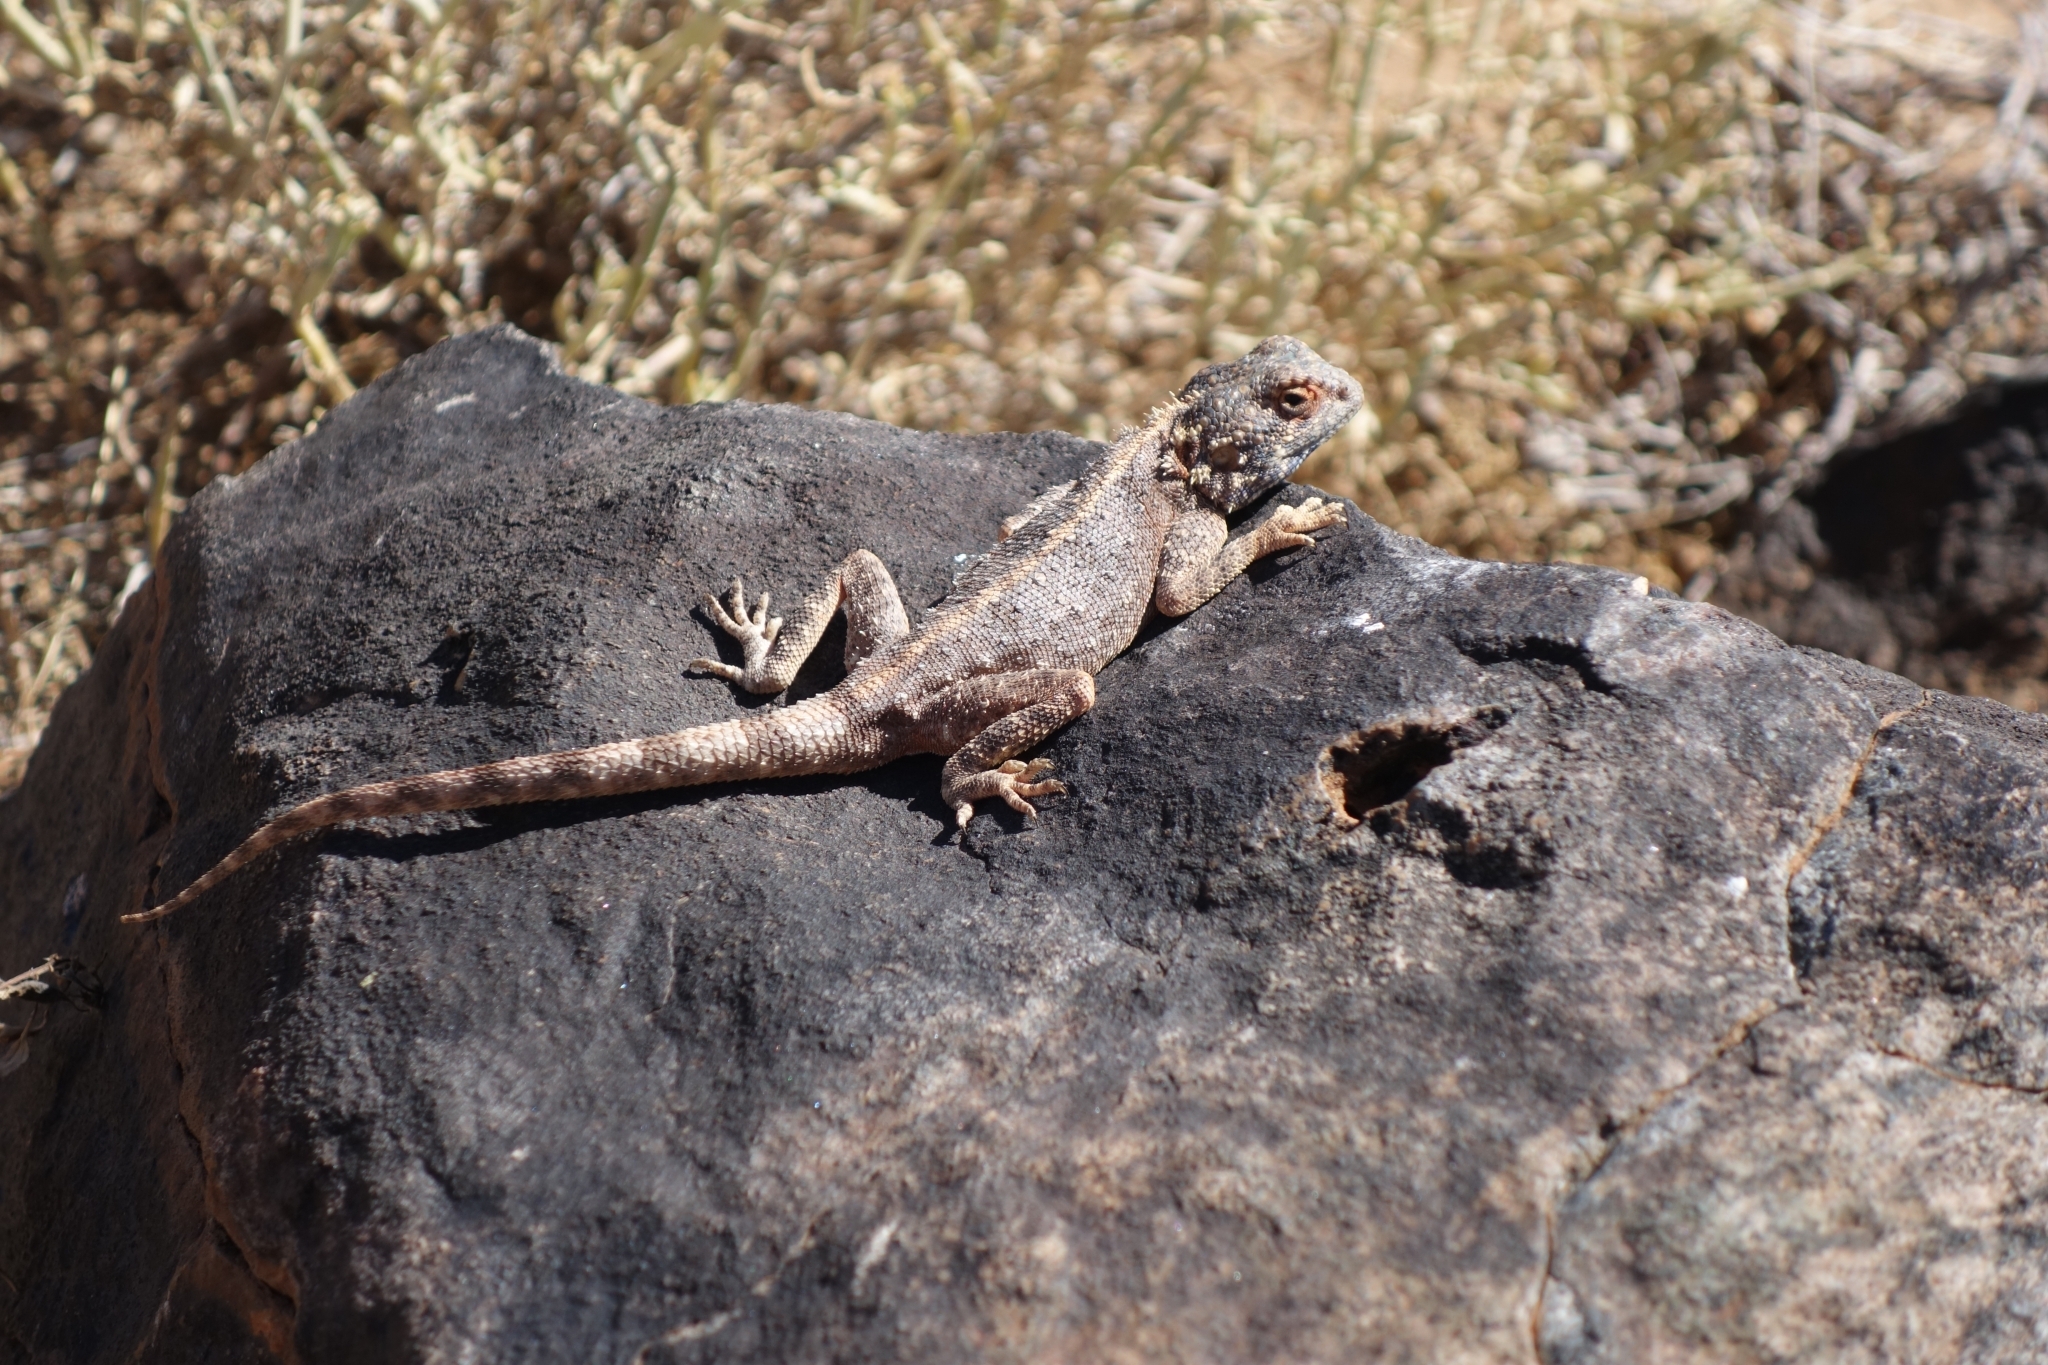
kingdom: Animalia
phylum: Chordata
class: Squamata
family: Agamidae
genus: Agama
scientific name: Agama anchietae
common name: Anchieta's agama
